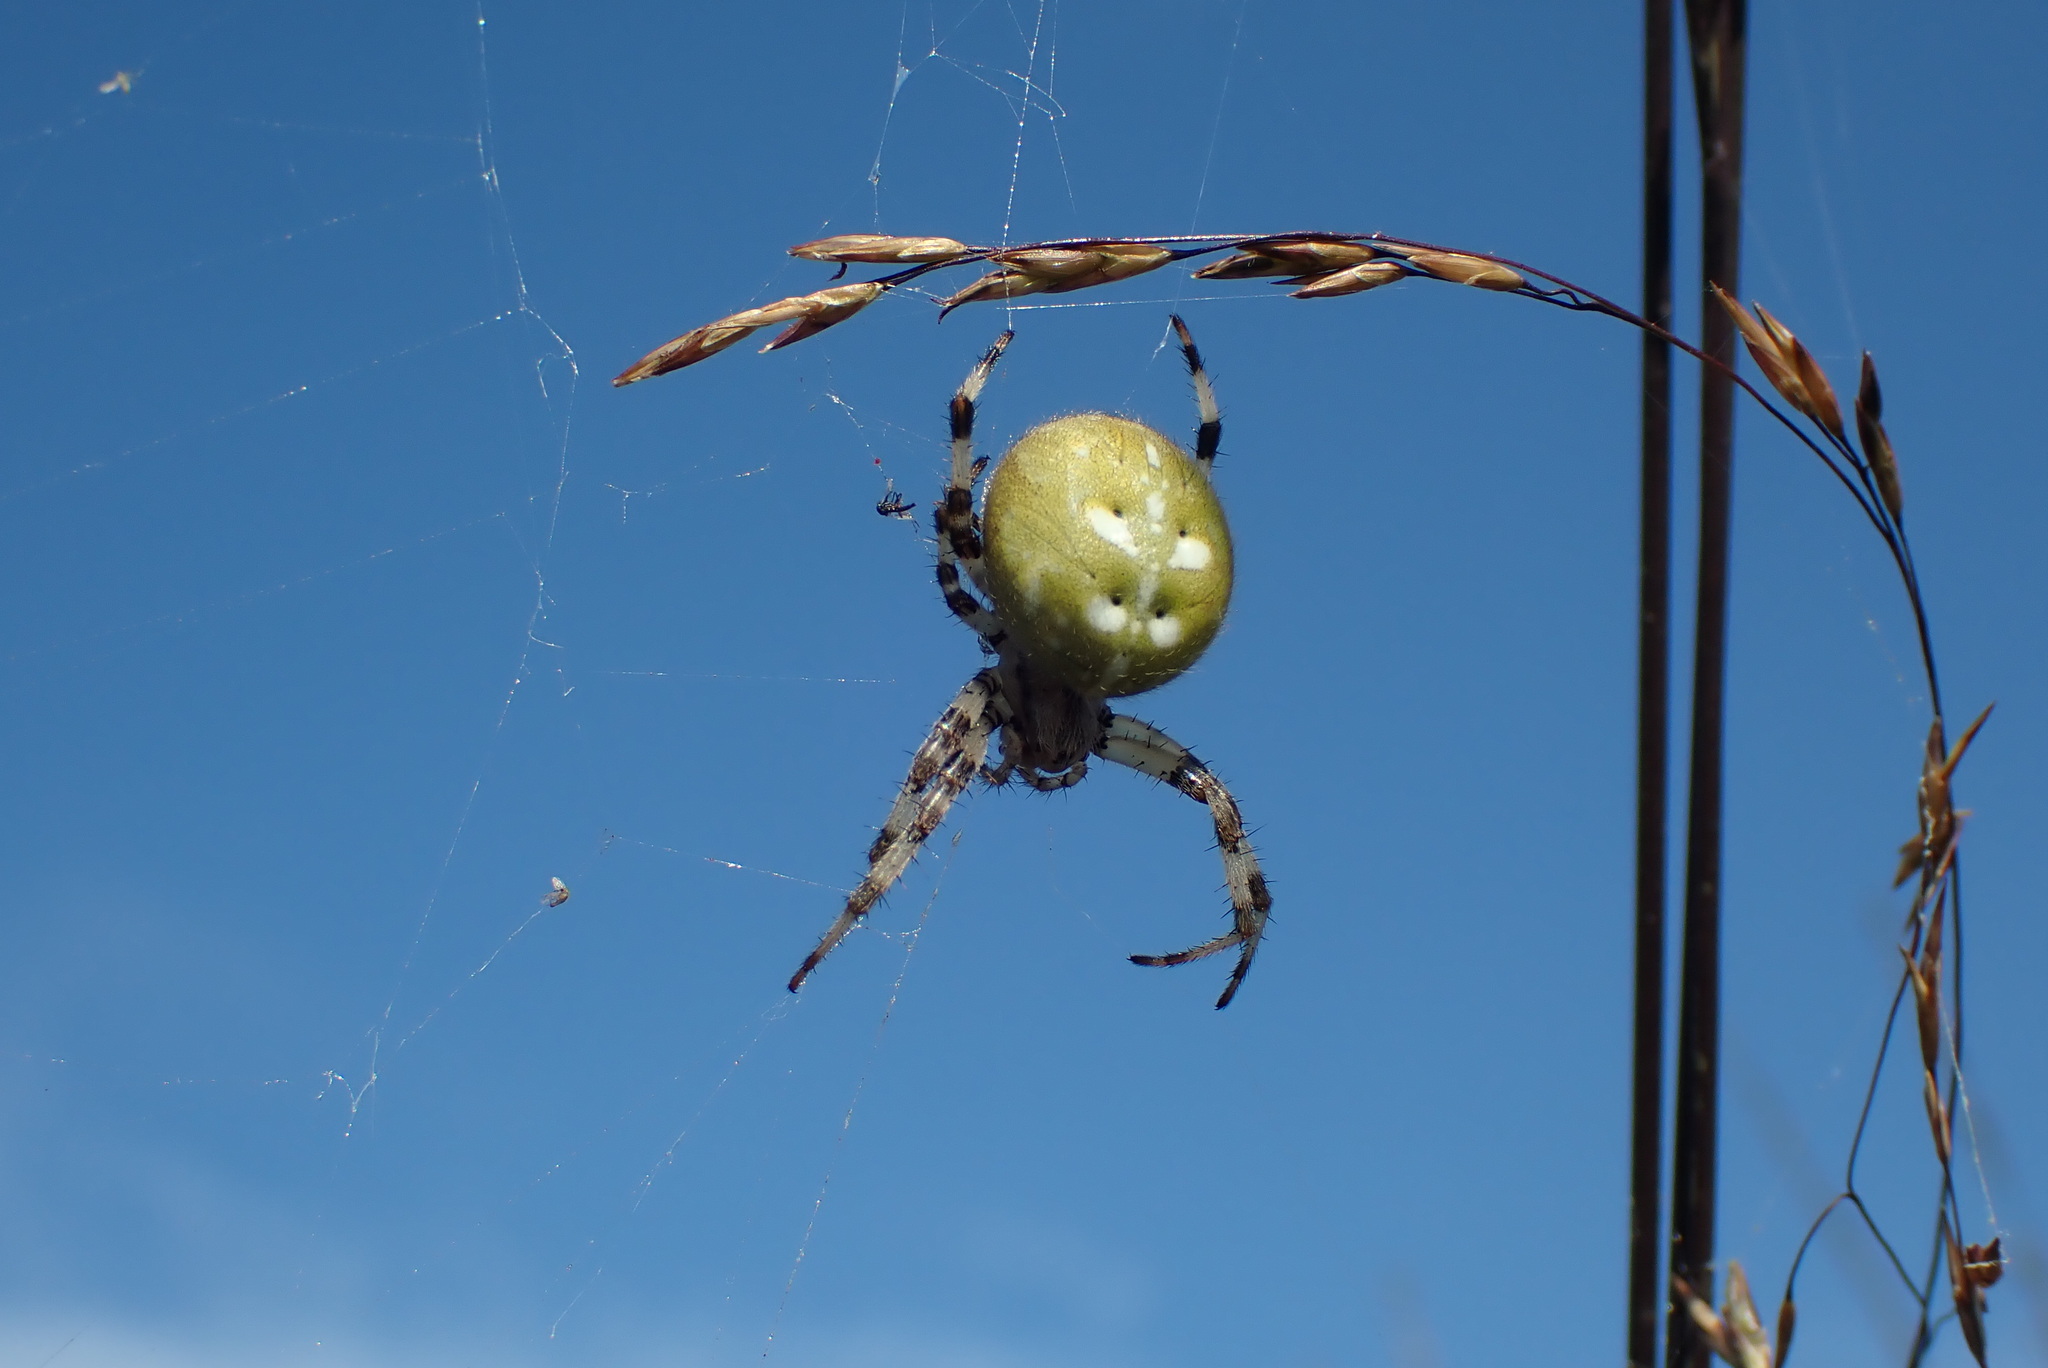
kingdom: Animalia
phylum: Arthropoda
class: Arachnida
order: Araneae
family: Araneidae
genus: Araneus
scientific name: Araneus quadratus
